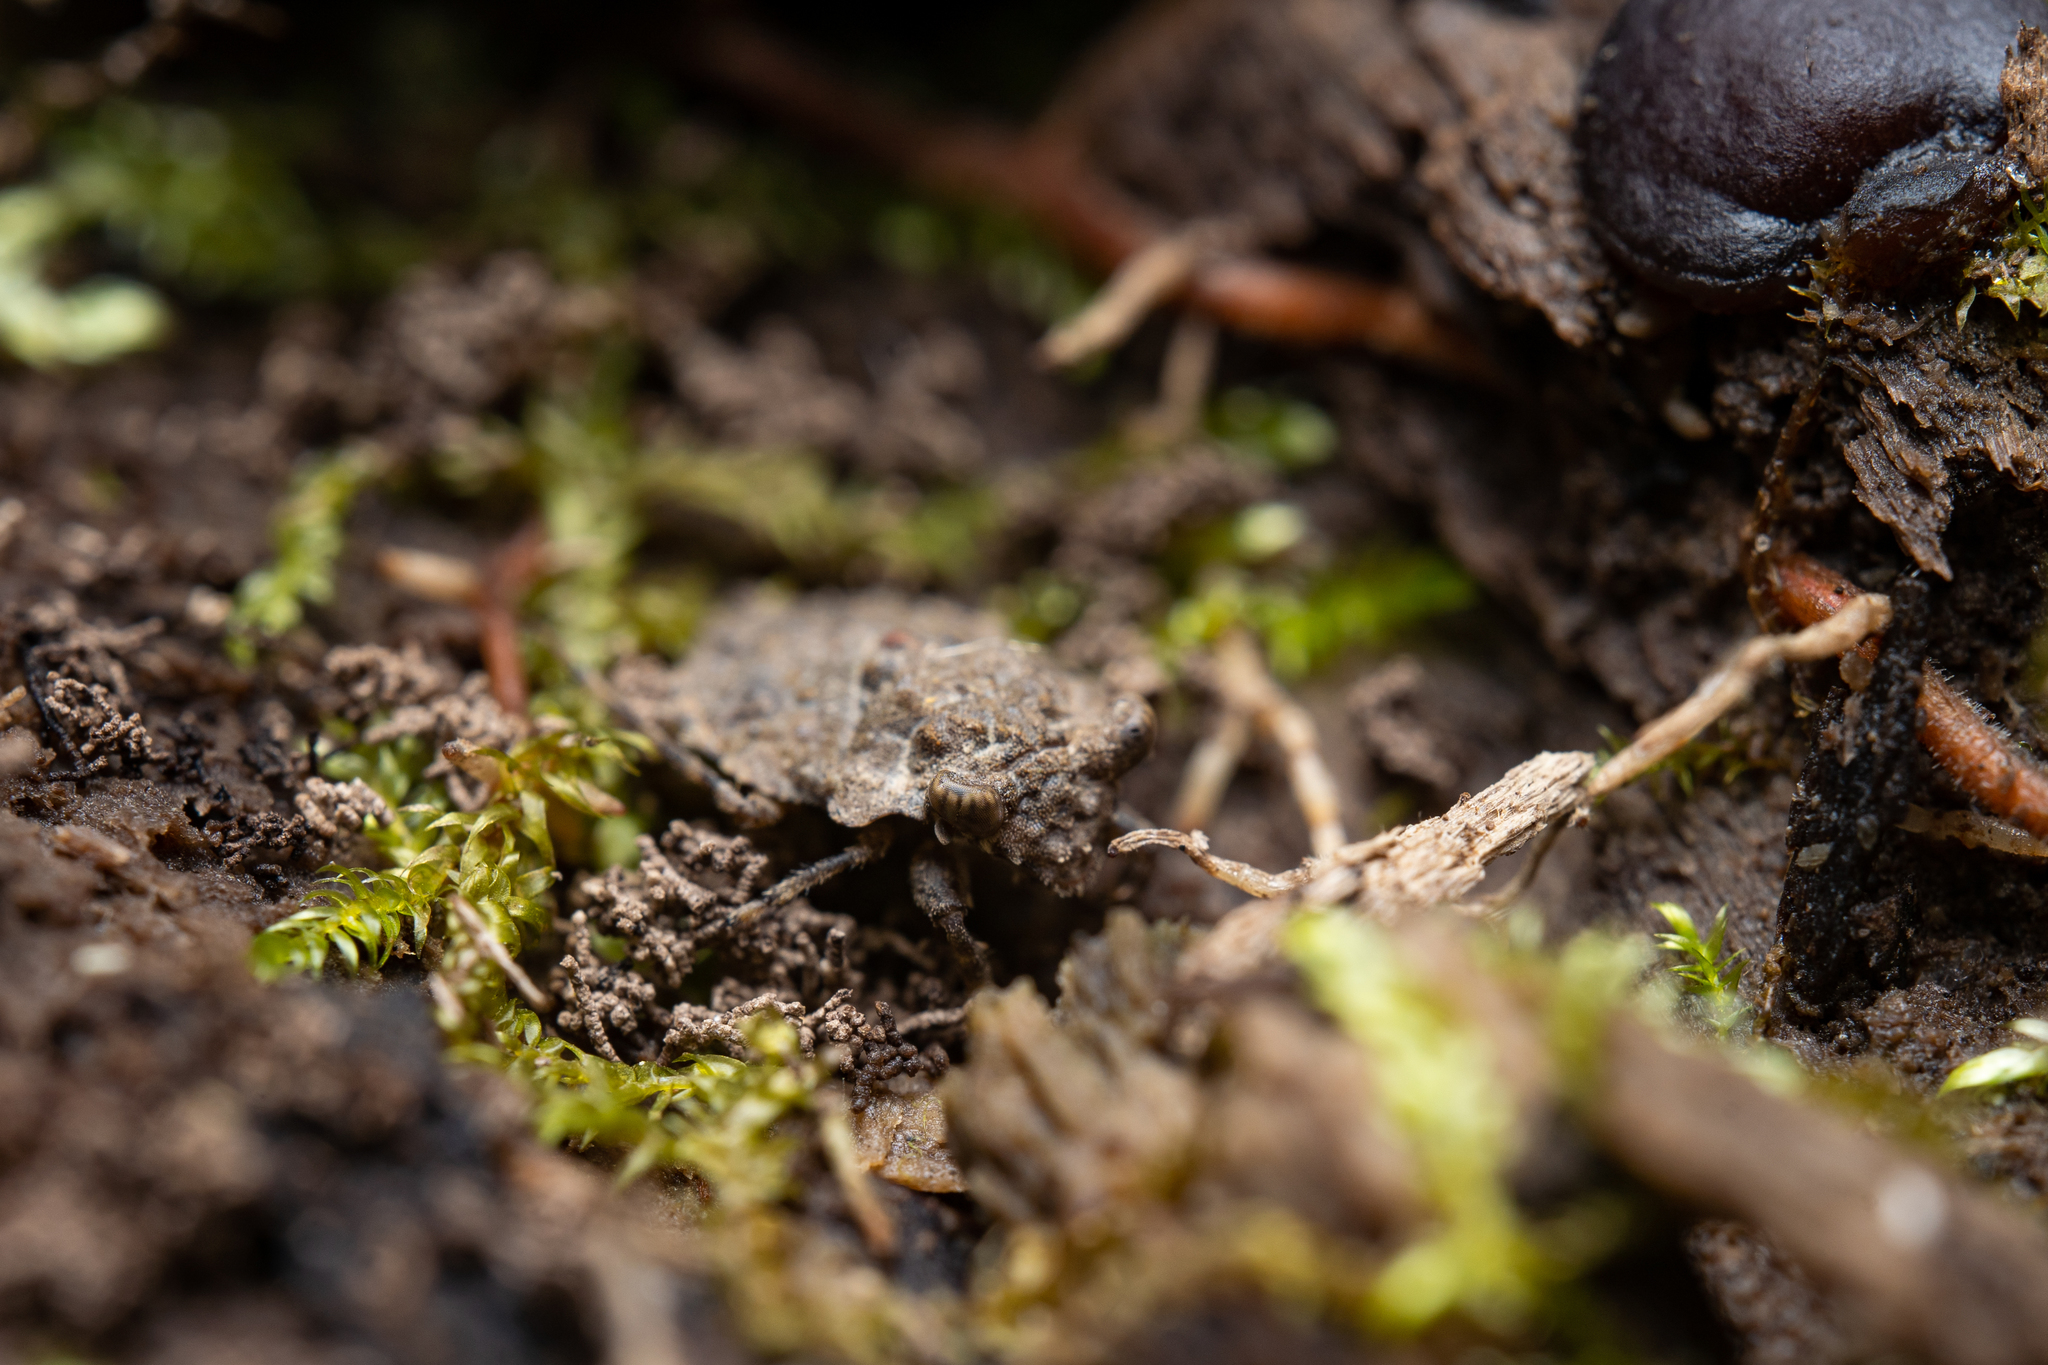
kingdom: Animalia
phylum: Arthropoda
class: Insecta
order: Hemiptera
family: Gelastocoridae
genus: Gelastocoris
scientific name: Gelastocoris oculatus
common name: Toad bug
